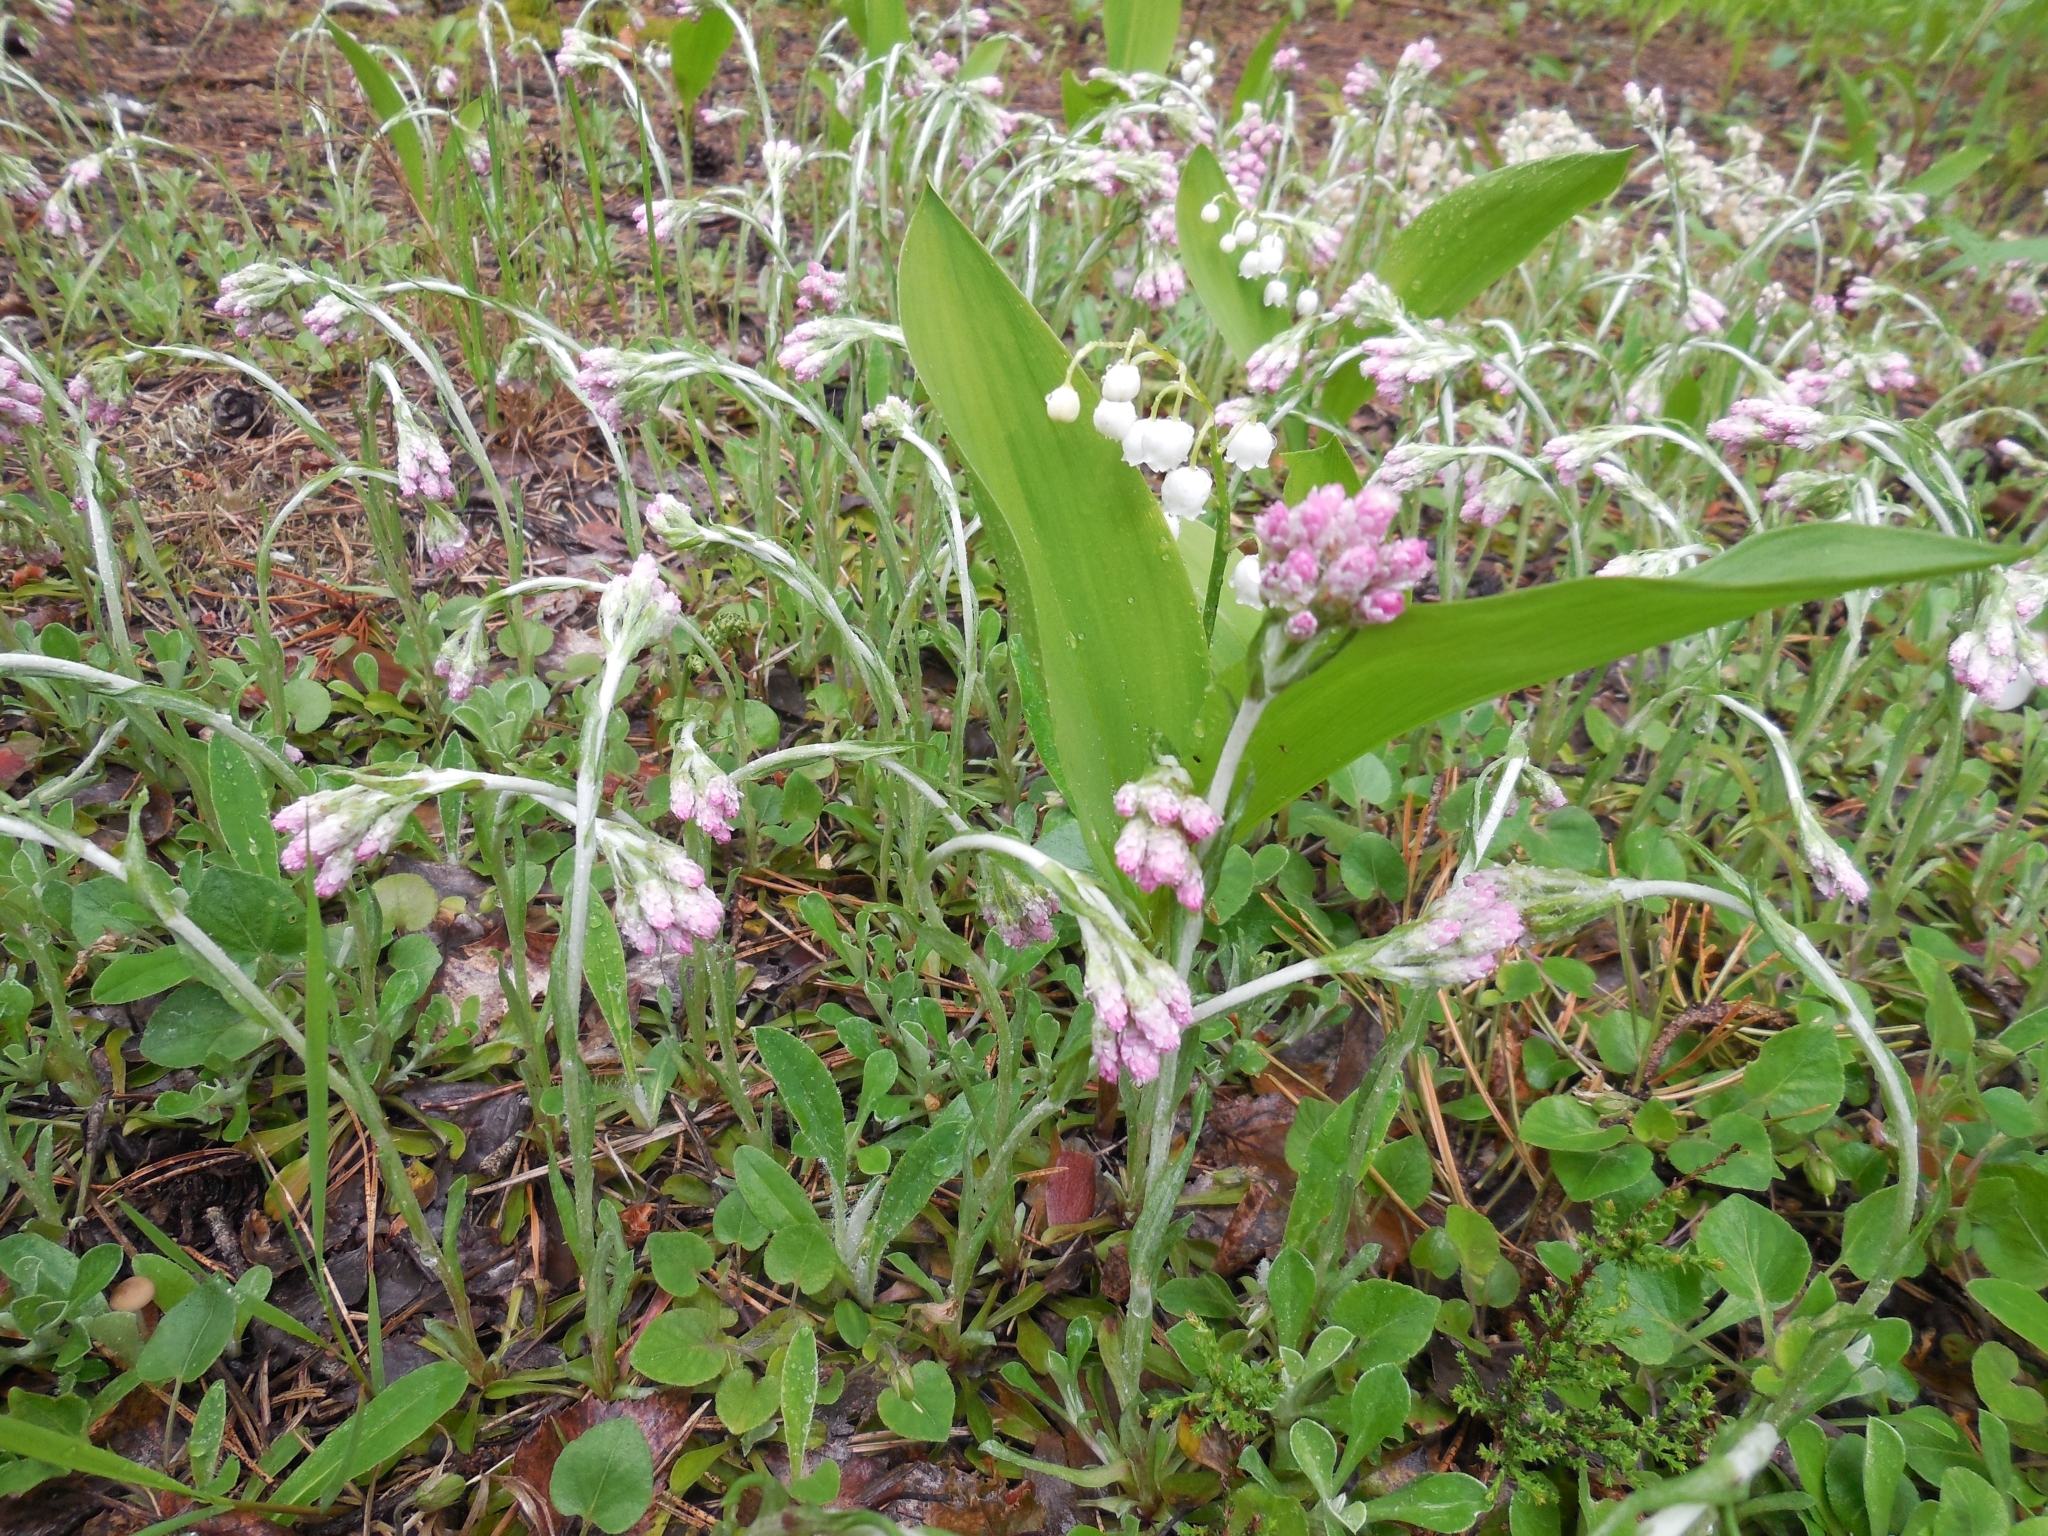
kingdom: Plantae
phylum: Tracheophyta
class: Magnoliopsida
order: Asterales
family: Asteraceae
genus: Antennaria
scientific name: Antennaria dioica
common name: Mountain everlasting
